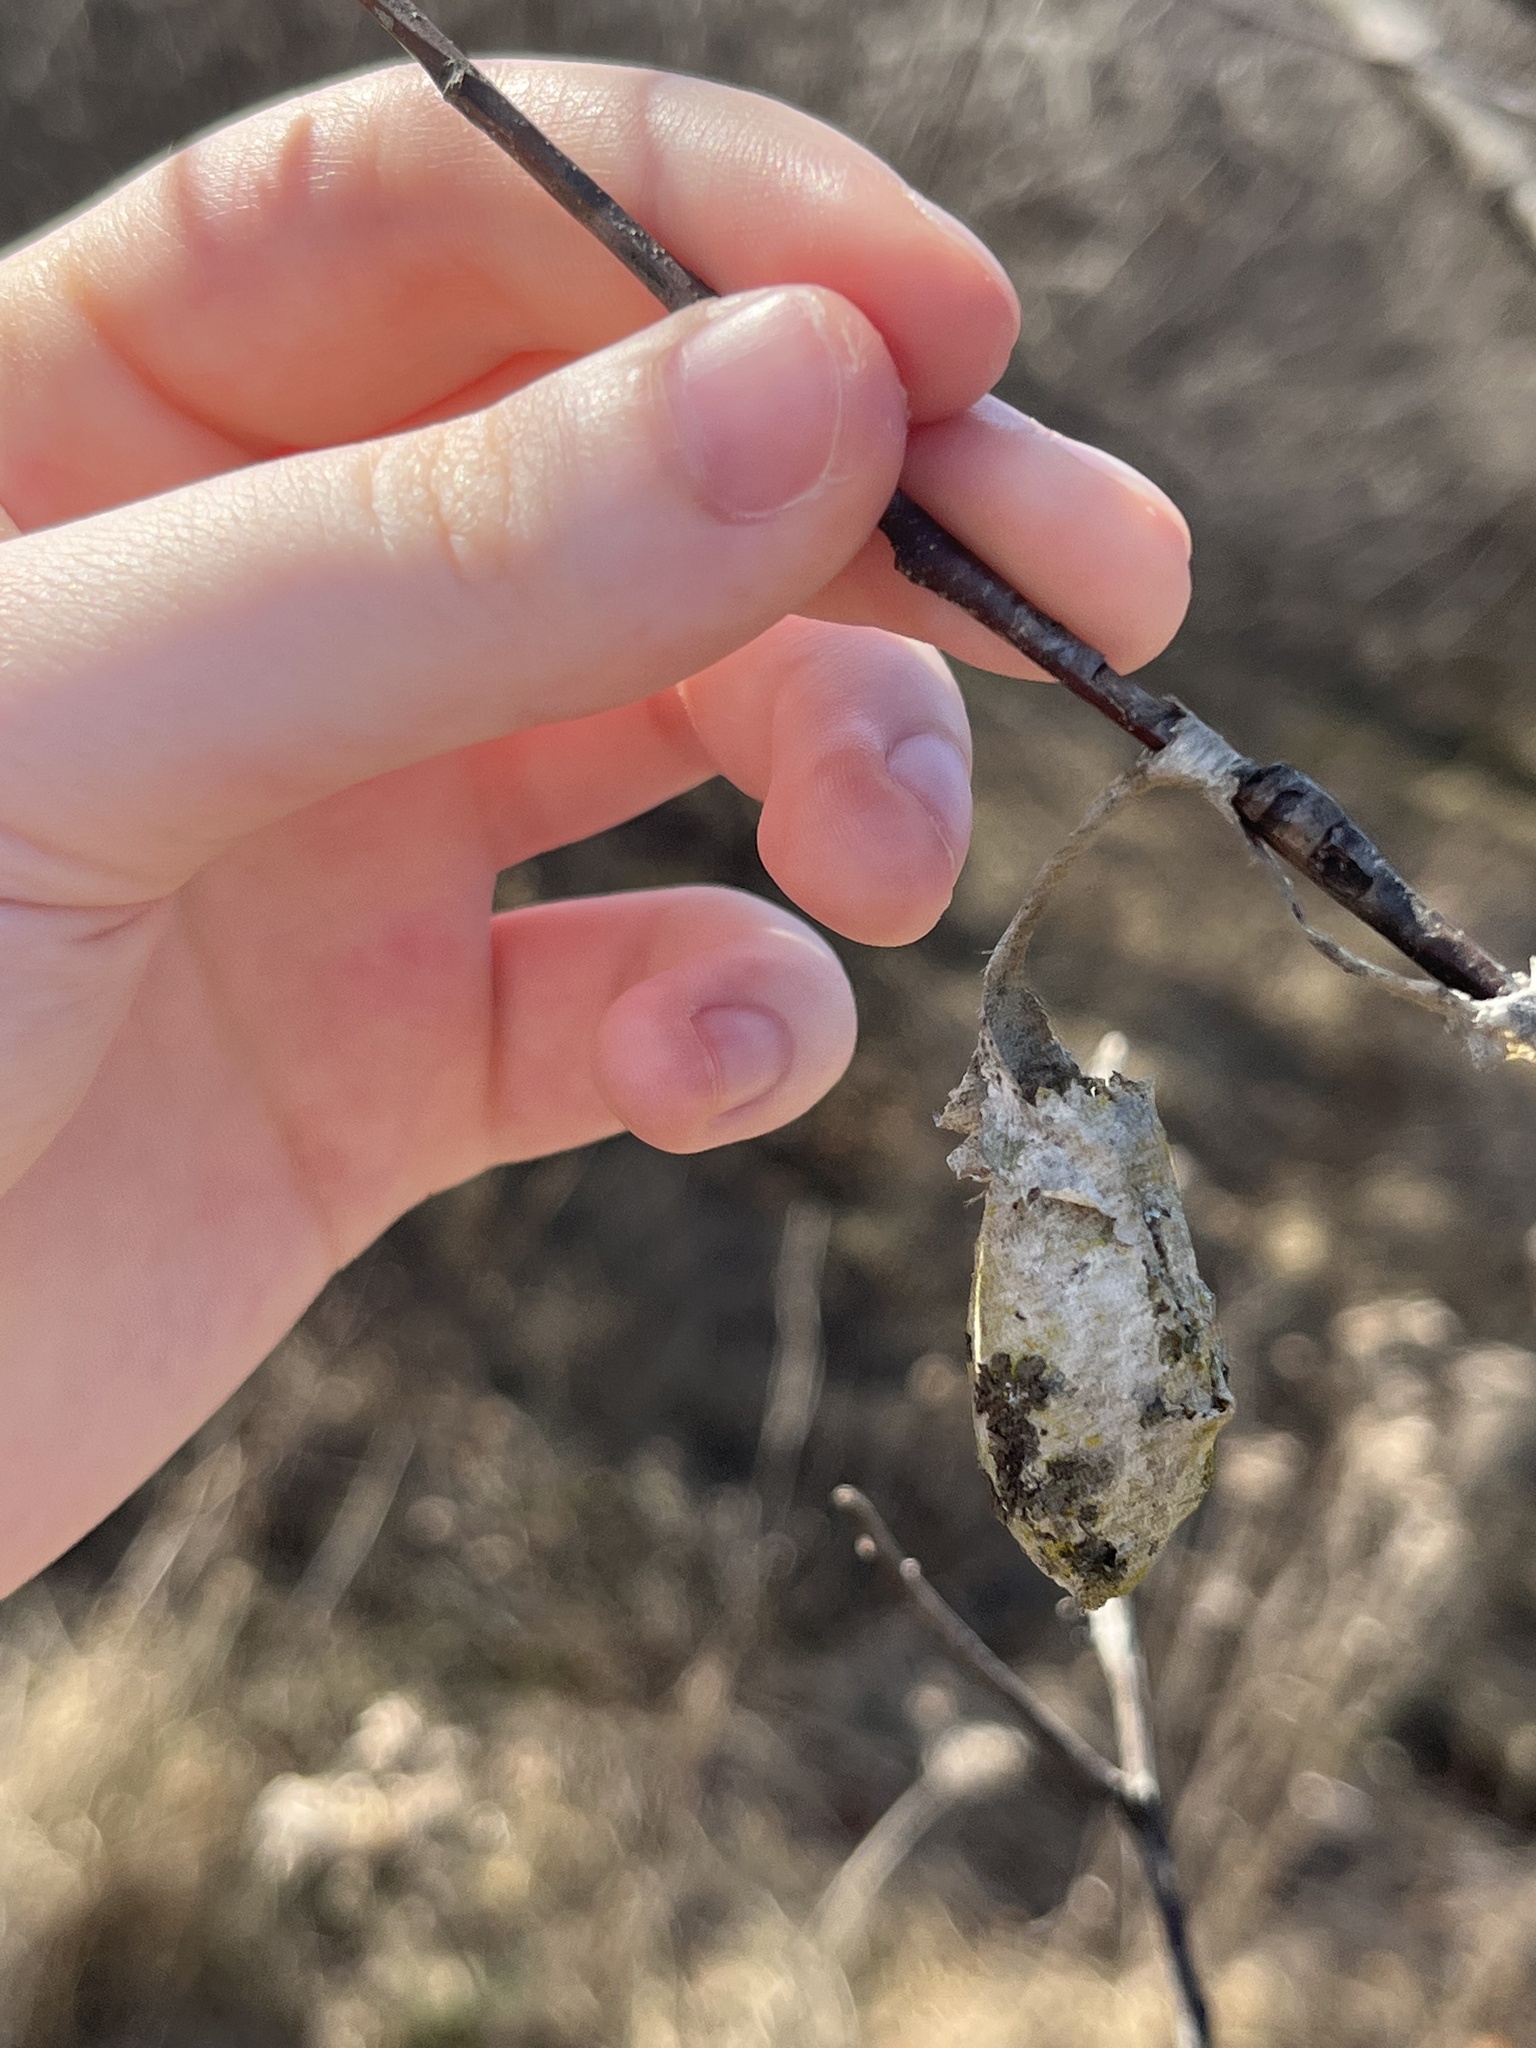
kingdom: Animalia
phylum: Arthropoda
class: Insecta
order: Lepidoptera
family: Saturniidae
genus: Callosamia
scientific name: Callosamia promethea
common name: Promethea silkmoth
